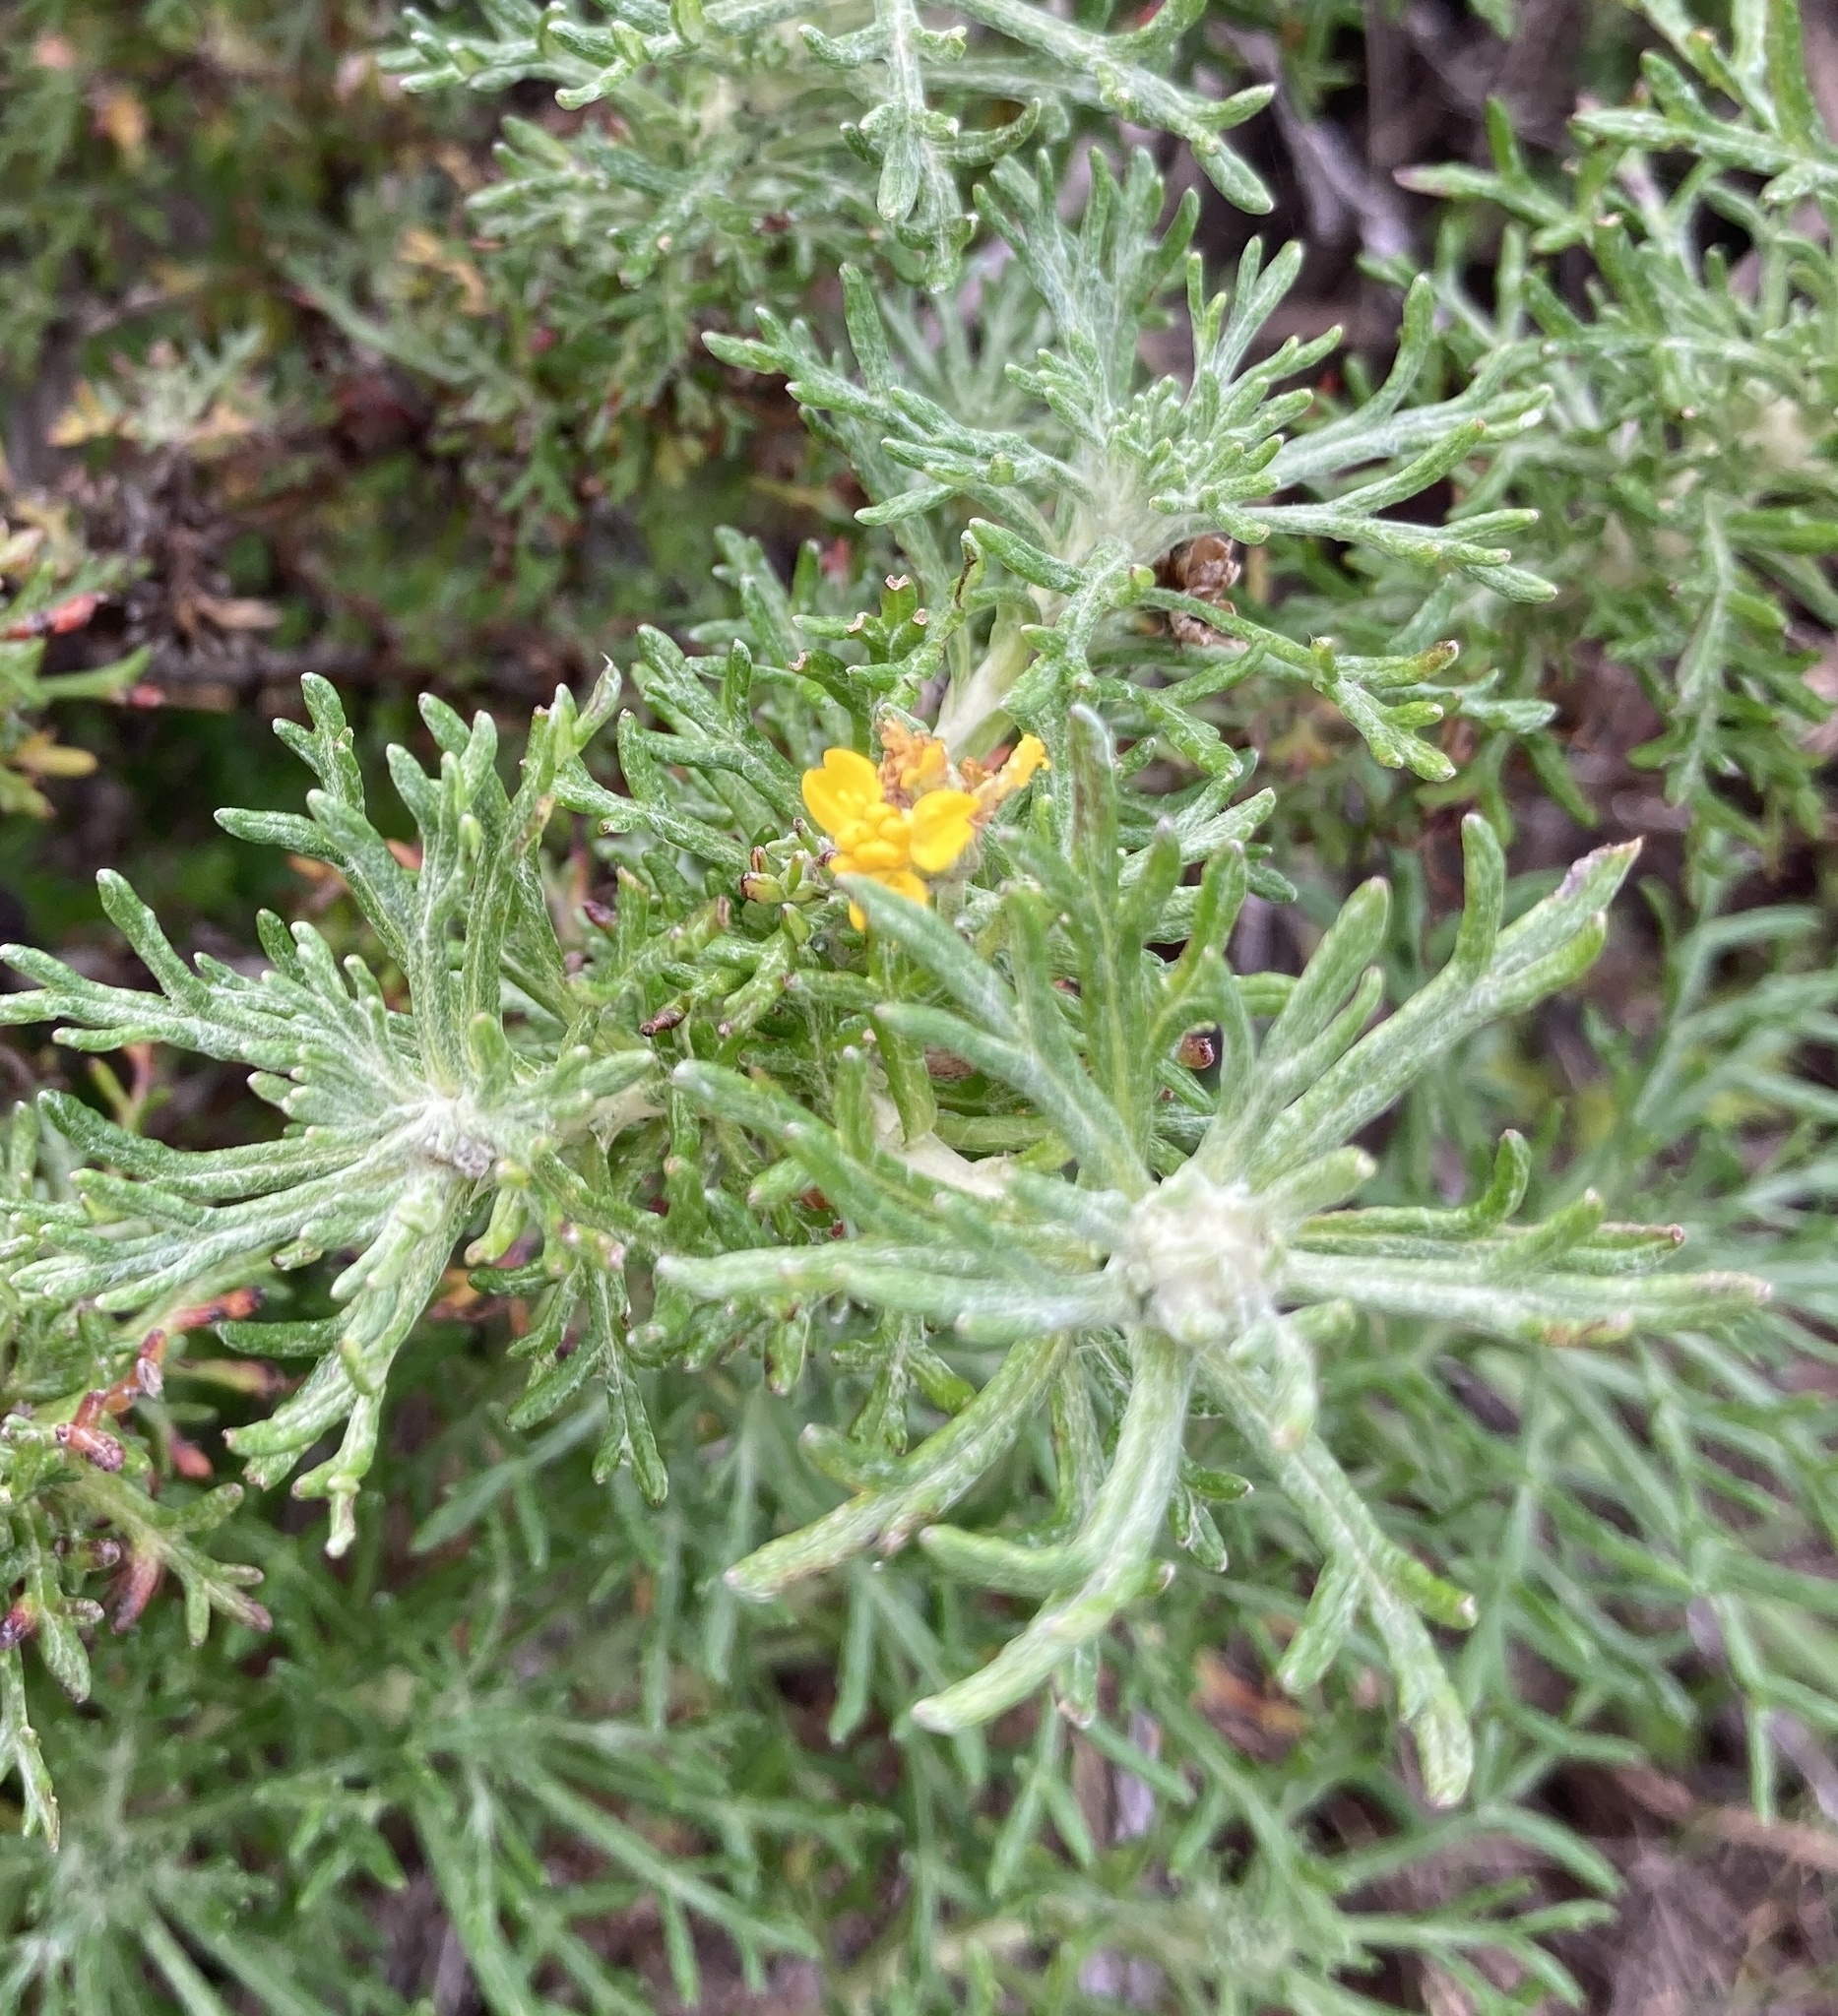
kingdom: Plantae
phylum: Tracheophyta
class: Magnoliopsida
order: Asterales
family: Asteraceae
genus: Eriophyllum
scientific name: Eriophyllum staechadifolium
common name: Lizardtail
